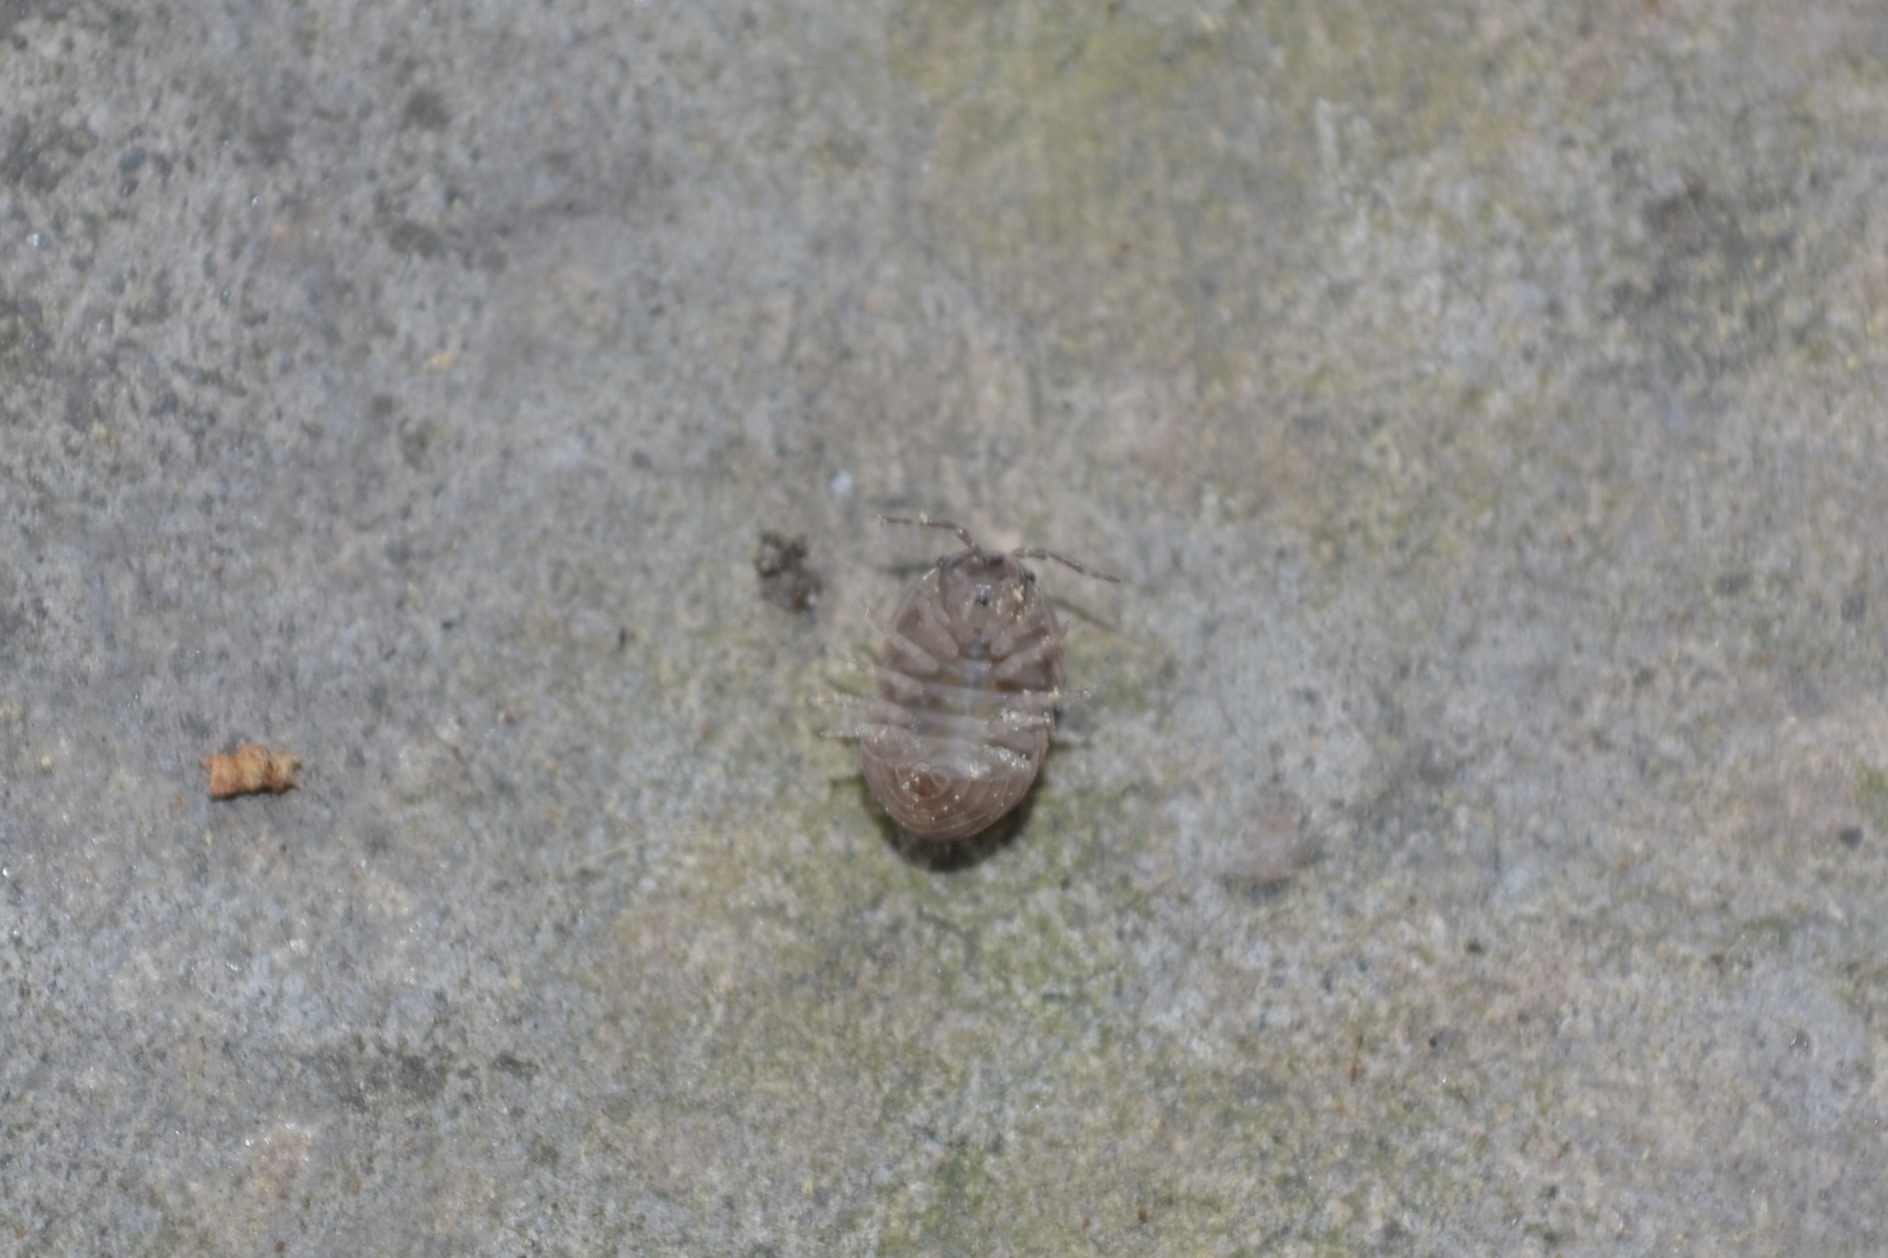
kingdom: Animalia
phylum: Arthropoda
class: Malacostraca
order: Isopoda
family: Armadillidiidae
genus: Armadillidium
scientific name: Armadillidium vulgare
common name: Common pill woodlouse
